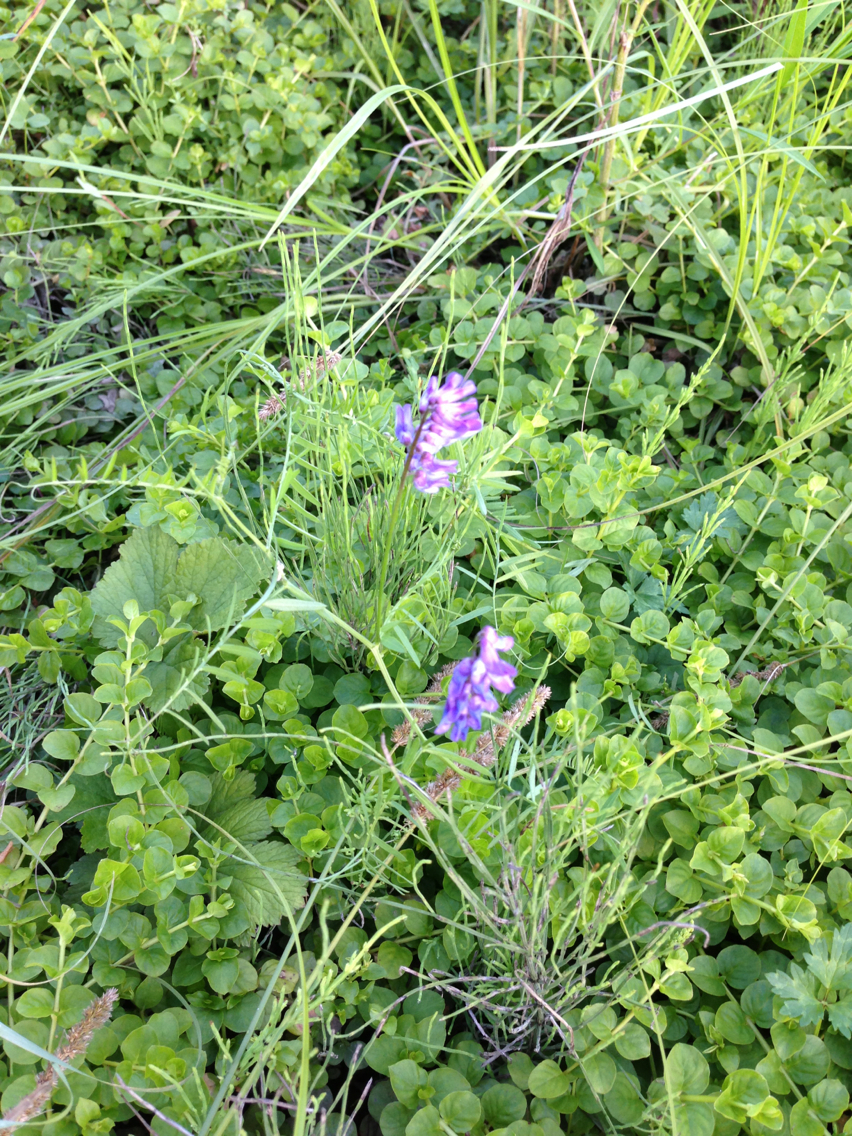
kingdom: Plantae
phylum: Tracheophyta
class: Magnoliopsida
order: Fabales
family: Fabaceae
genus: Vicia
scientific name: Vicia cracca
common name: Bird vetch
